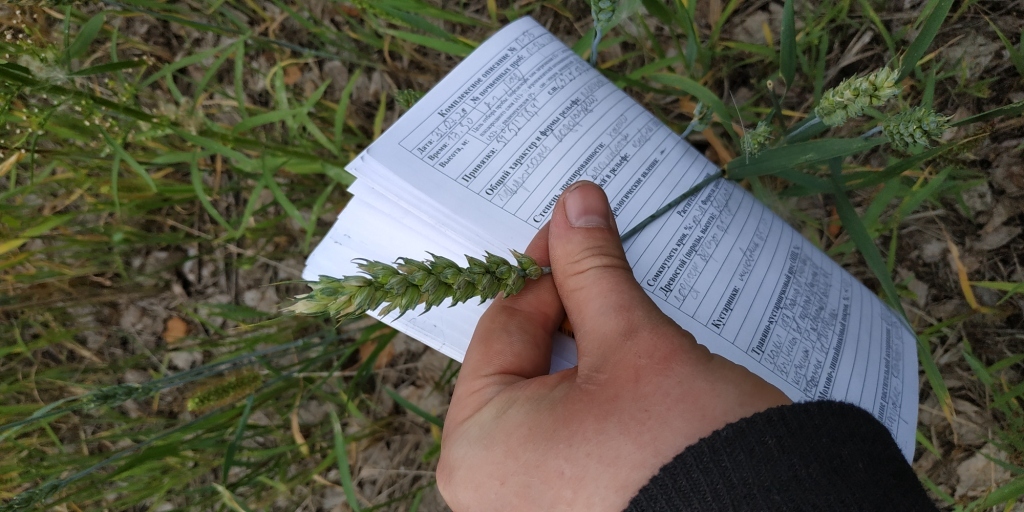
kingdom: Plantae
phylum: Tracheophyta
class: Liliopsida
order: Poales
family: Poaceae
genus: Triticum
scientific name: Triticum aestivum
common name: Common wheat
